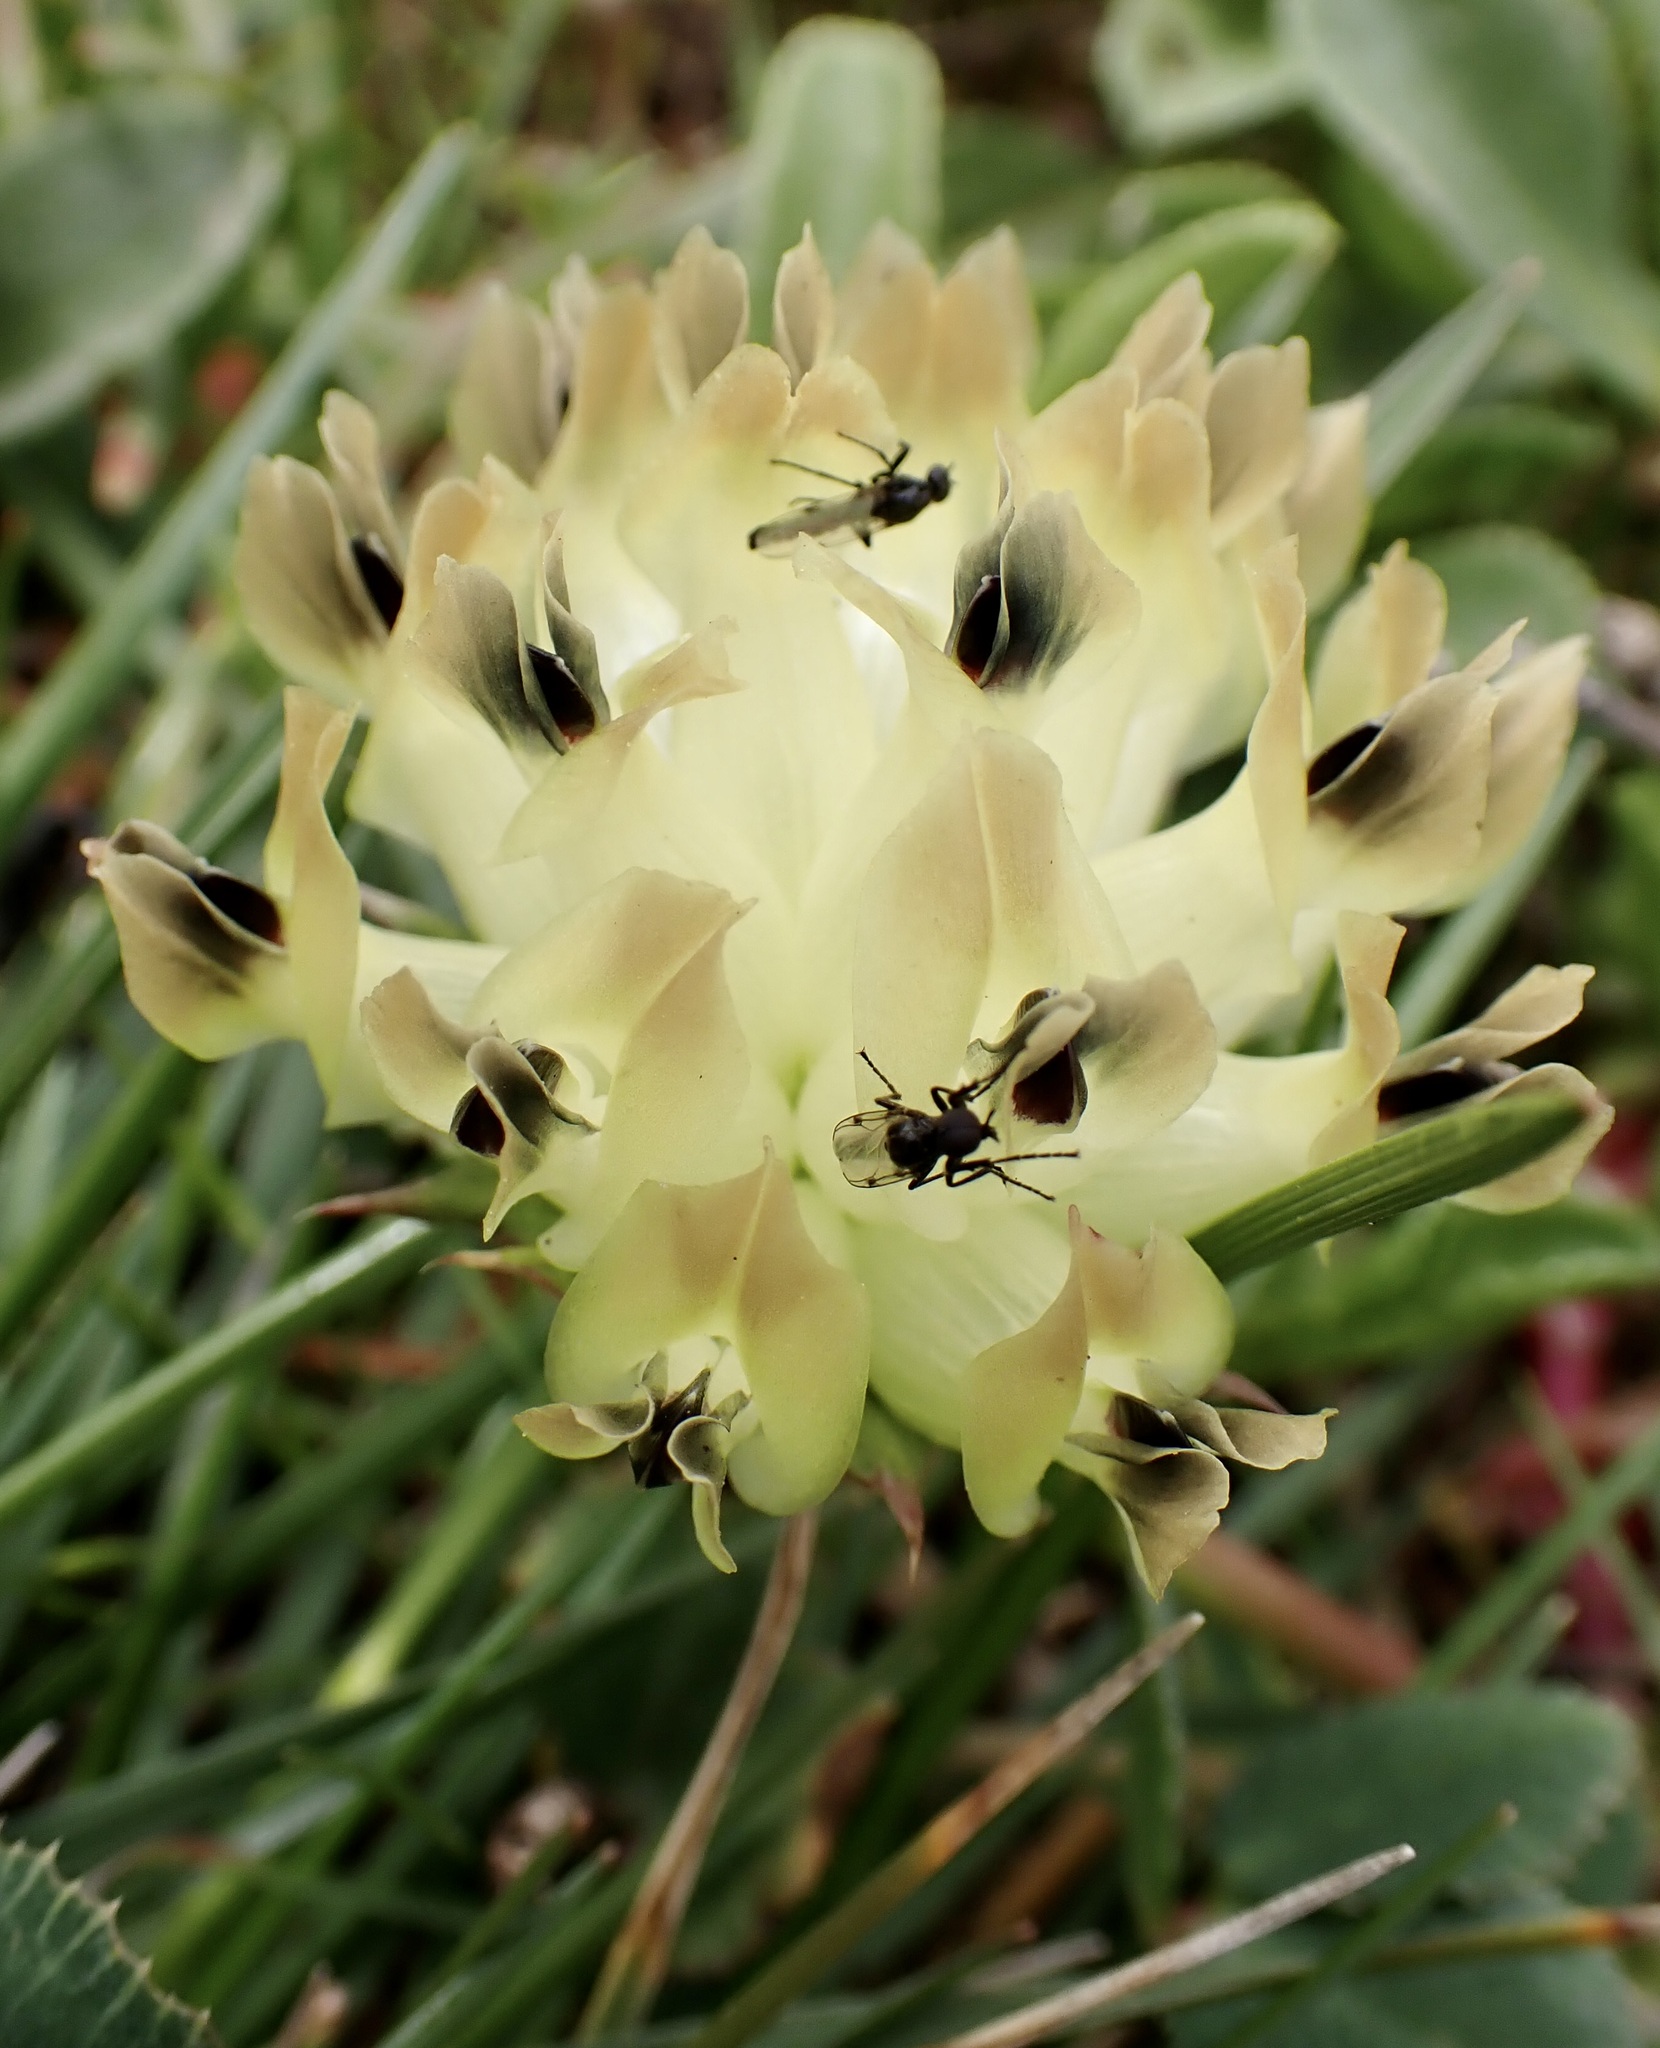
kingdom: Plantae
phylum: Tracheophyta
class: Magnoliopsida
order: Fabales
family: Fabaceae
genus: Trifolium
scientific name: Trifolium fucatum
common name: Puff clover
